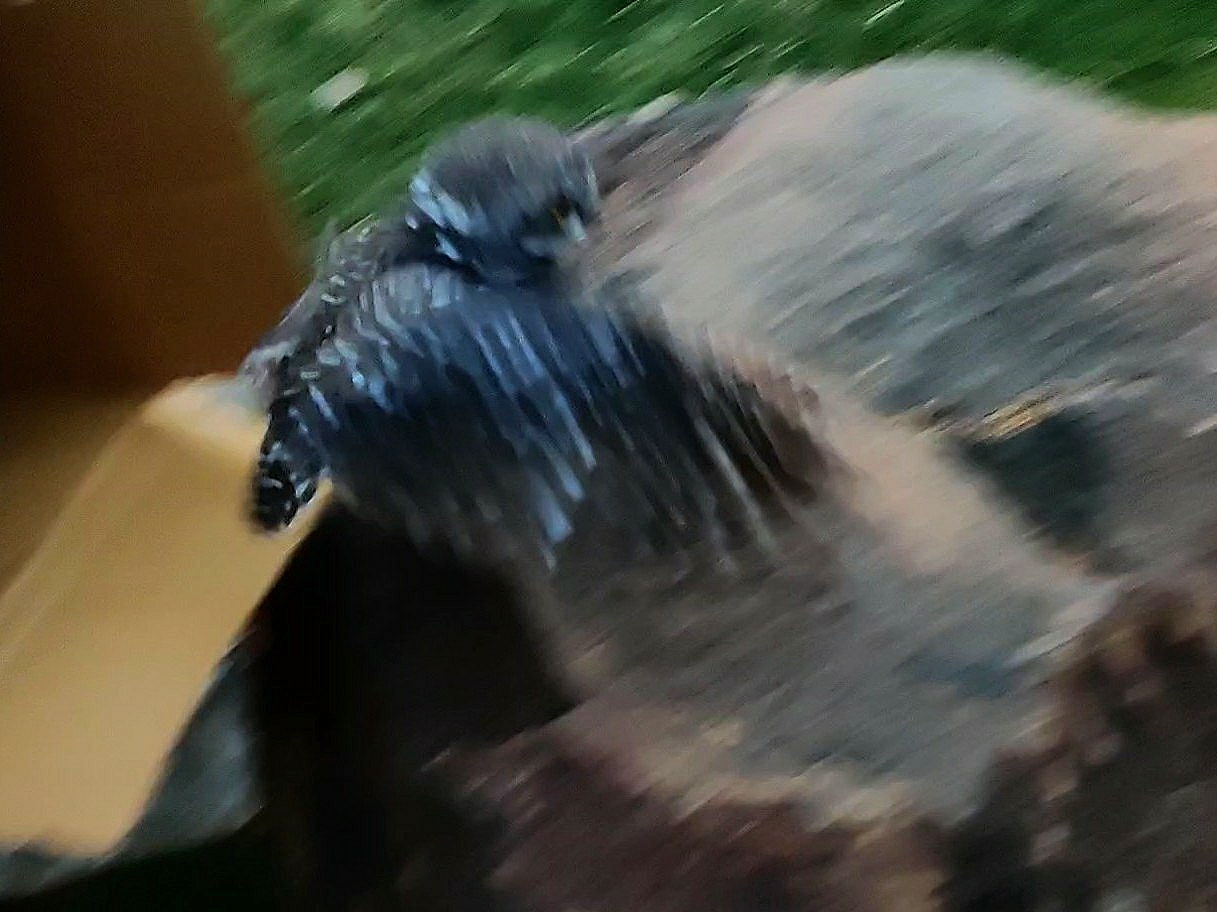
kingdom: Animalia
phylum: Chordata
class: Aves
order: Strigiformes
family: Strigidae
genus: Athene
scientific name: Athene brama
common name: Spotted owlet
